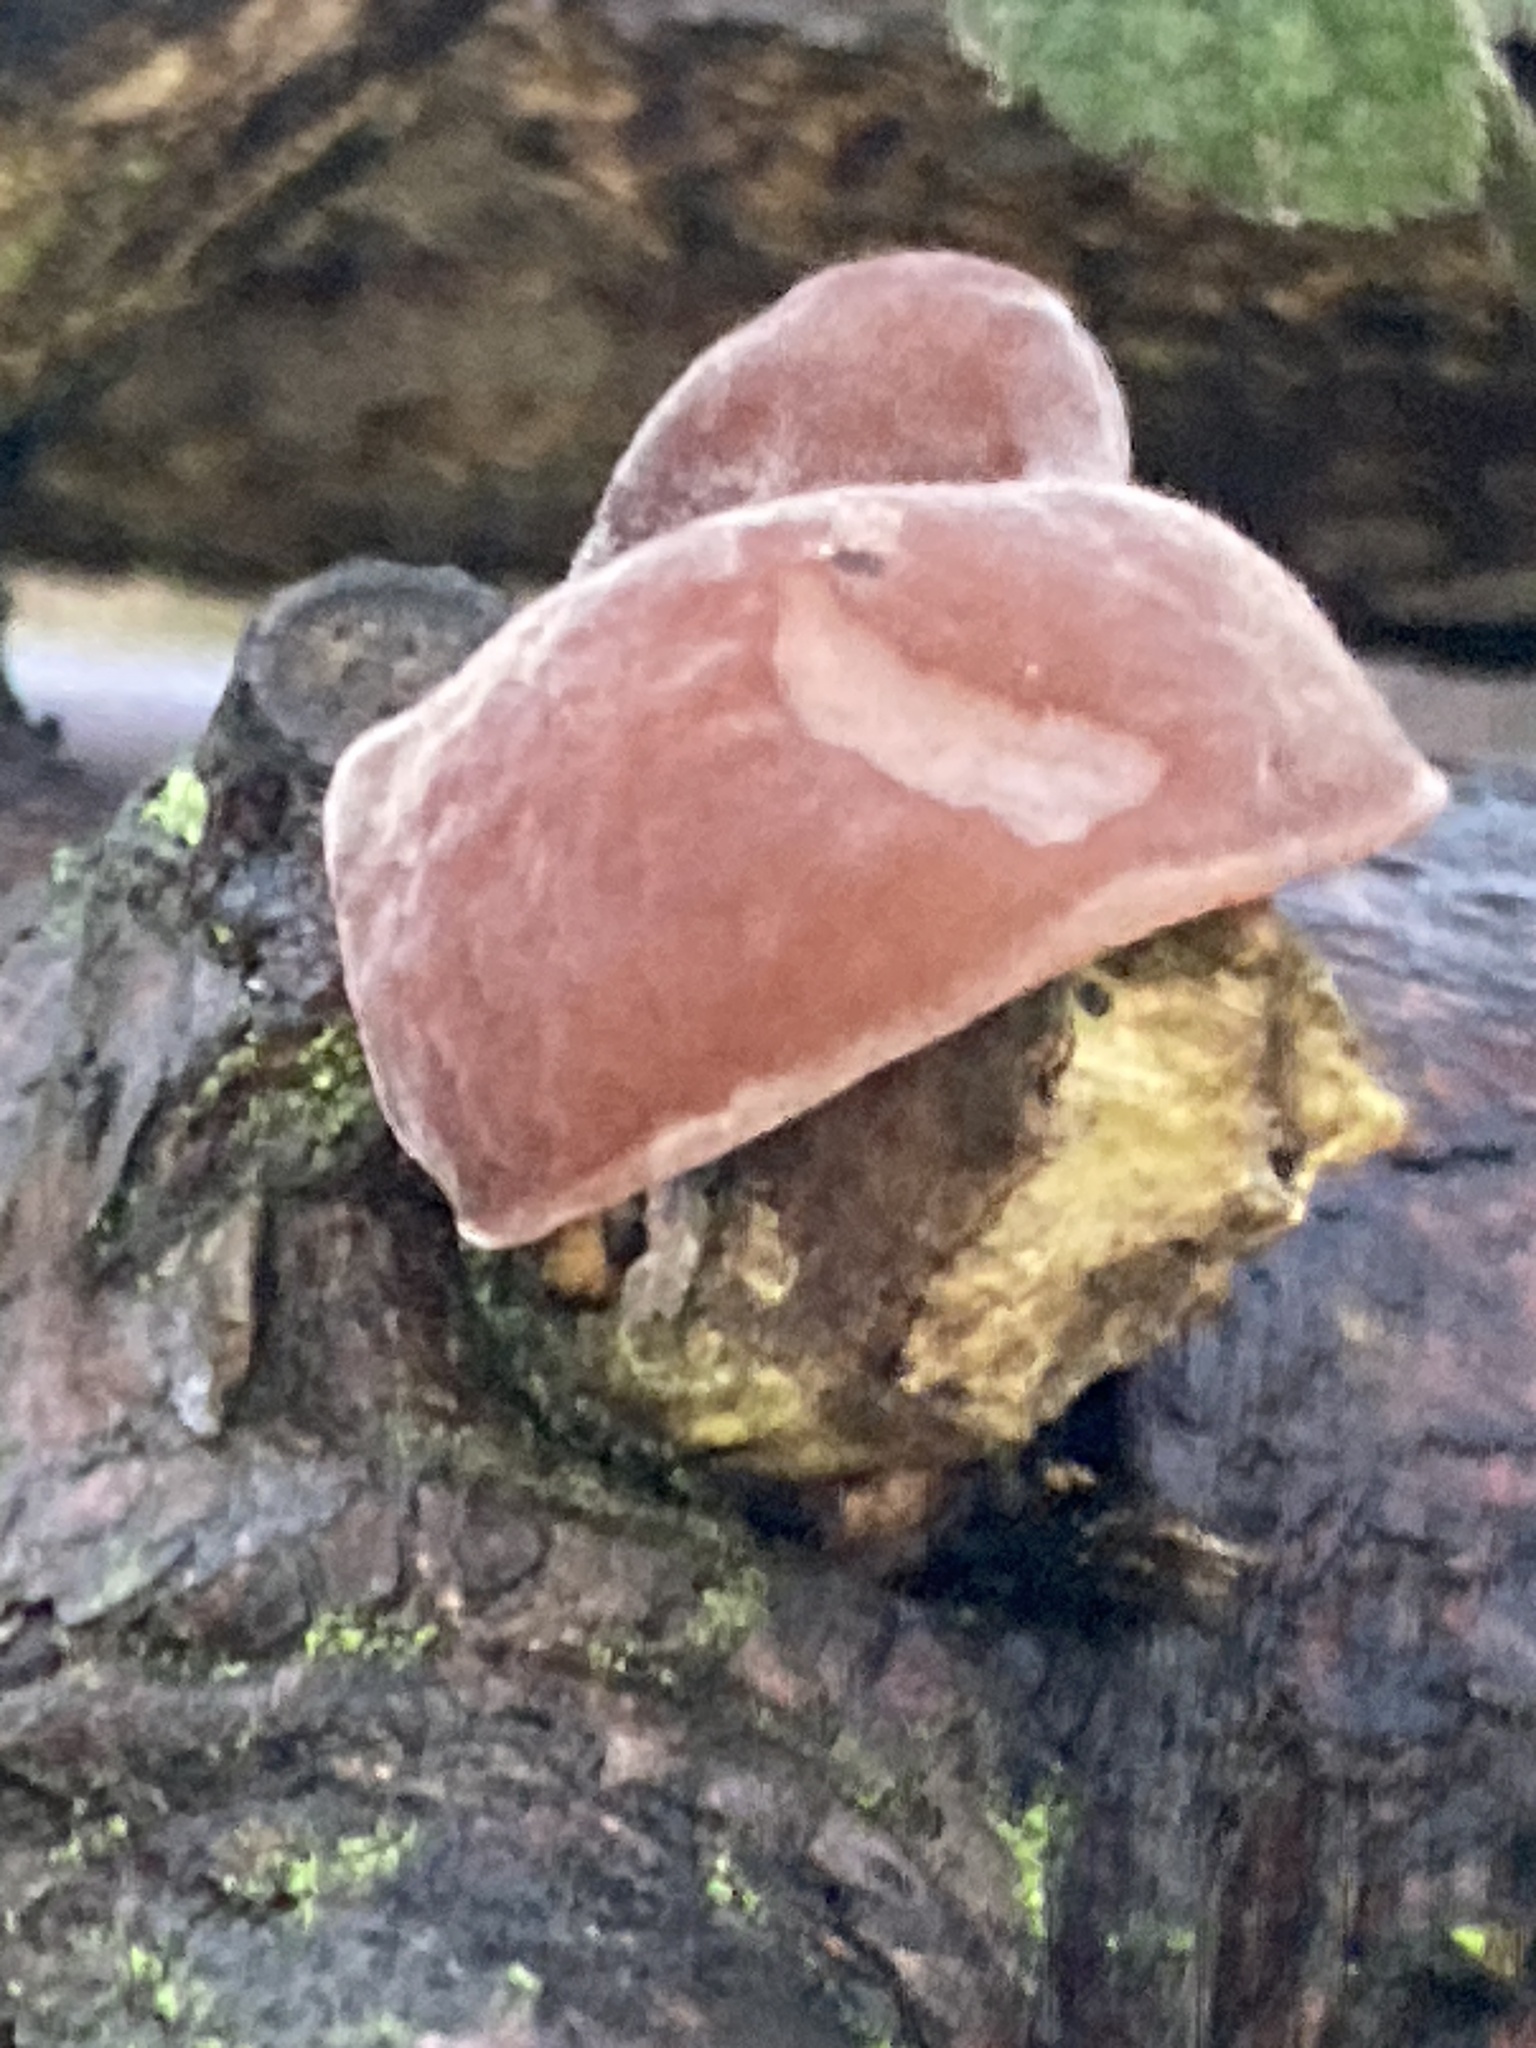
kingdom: Fungi
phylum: Basidiomycota
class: Agaricomycetes
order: Auriculariales
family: Auriculariaceae
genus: Auricularia
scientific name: Auricularia auricula-judae
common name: Jelly ear
